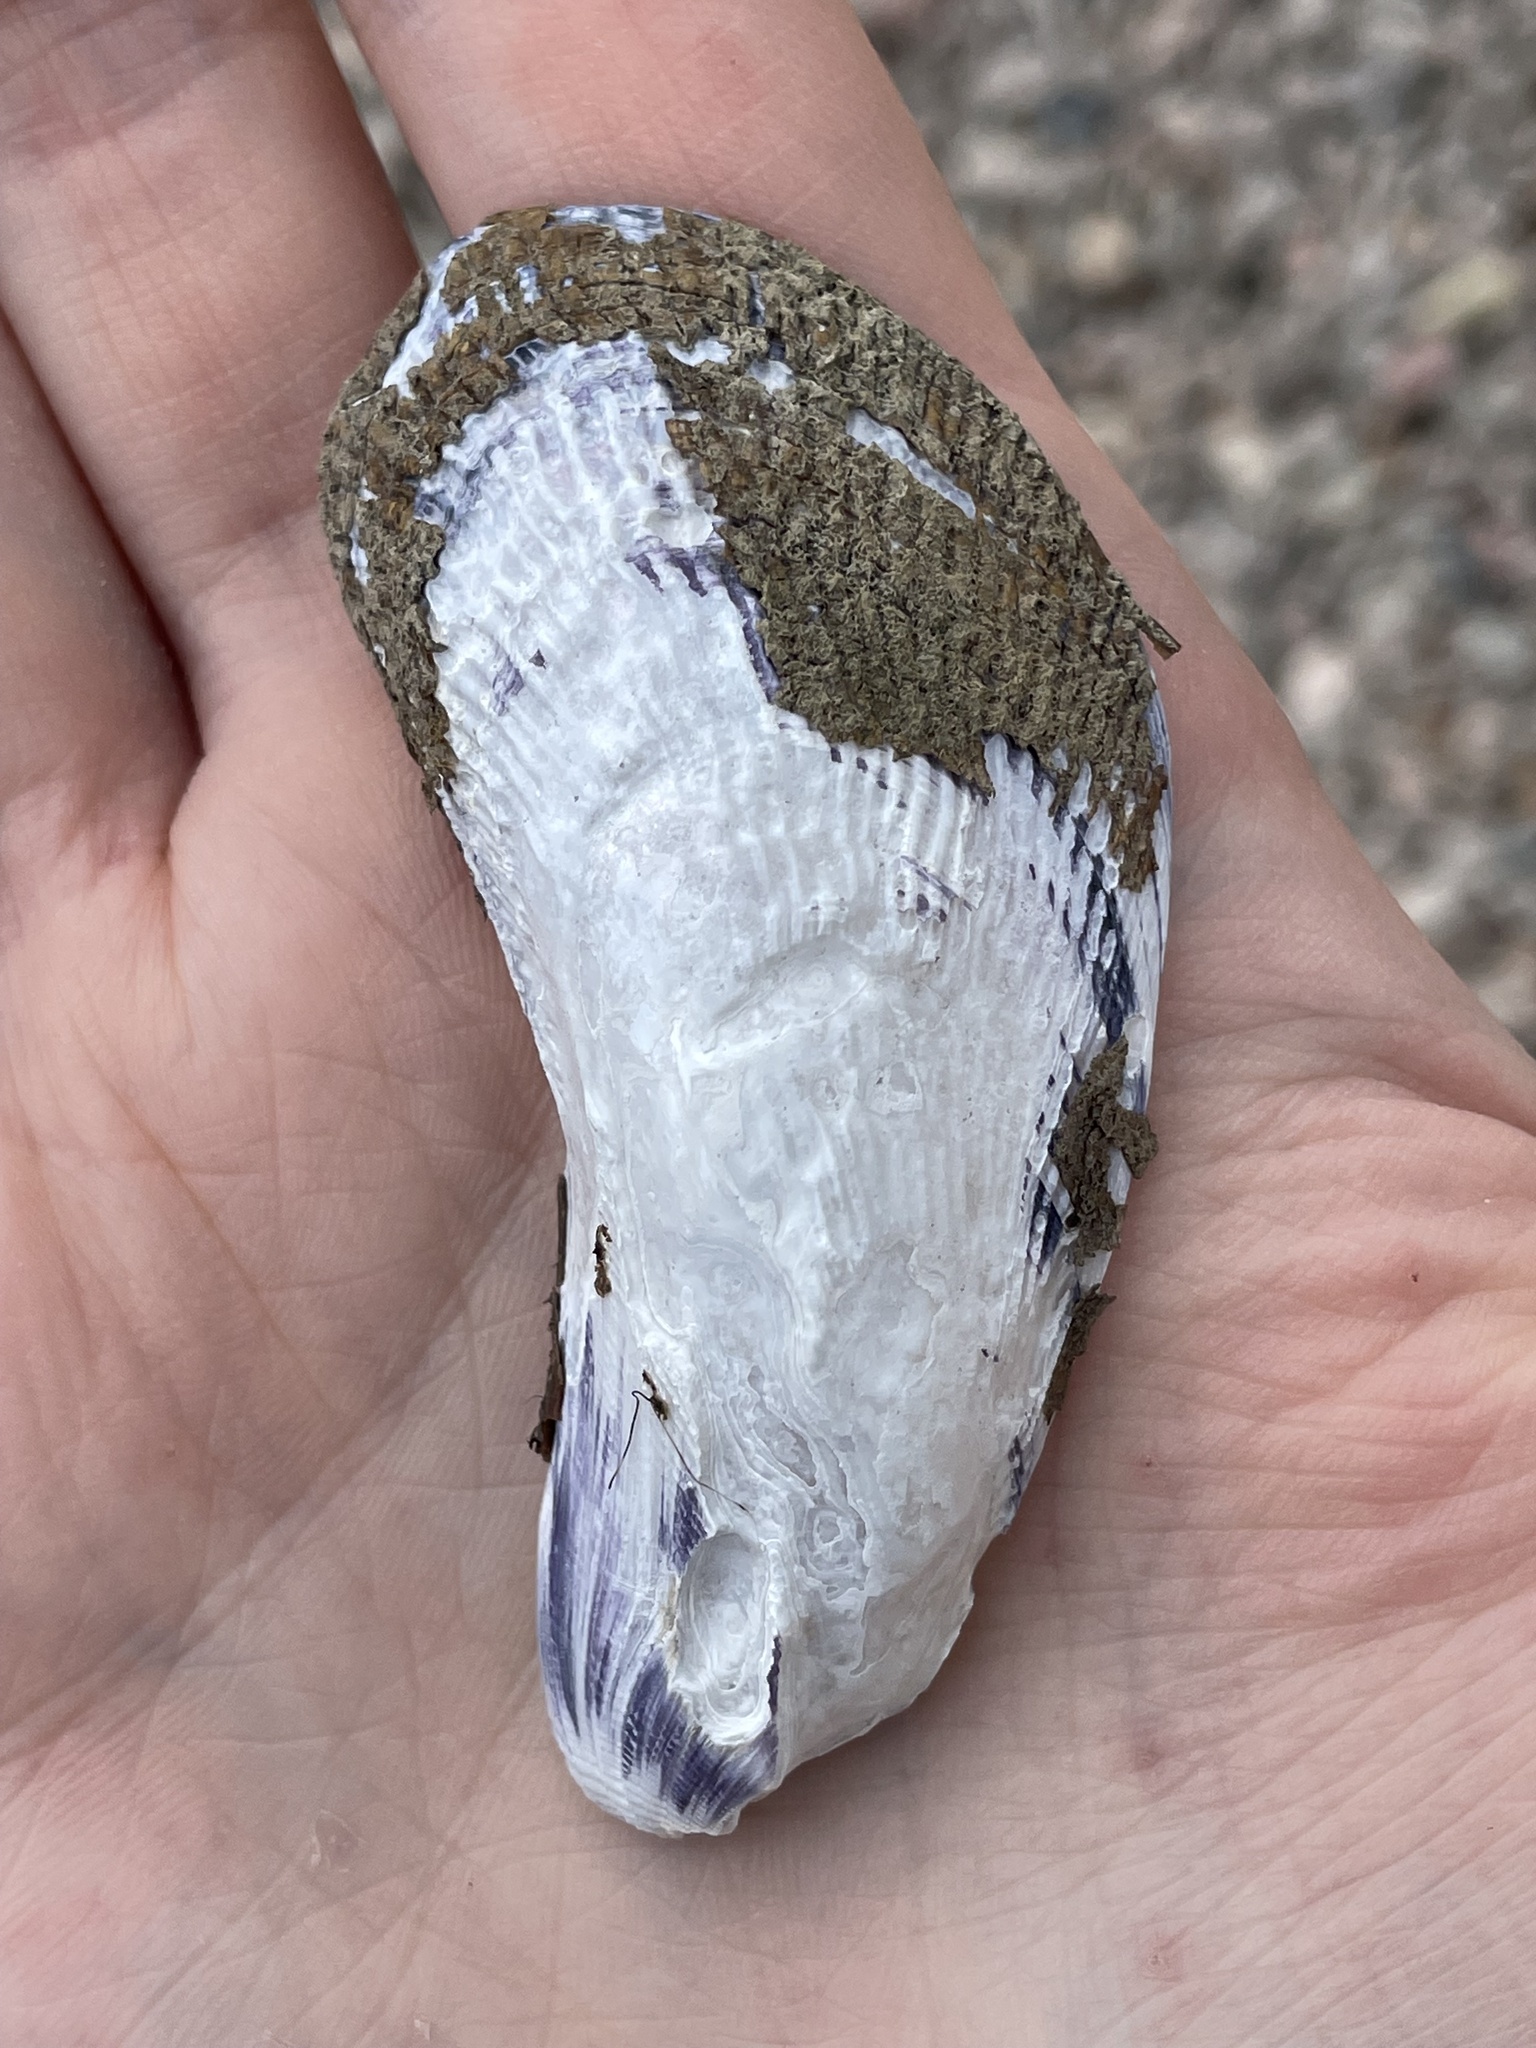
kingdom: Animalia
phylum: Mollusca
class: Bivalvia
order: Mytilida
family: Mytilidae
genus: Geukensia
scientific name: Geukensia demissa
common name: Ribbed mussel
